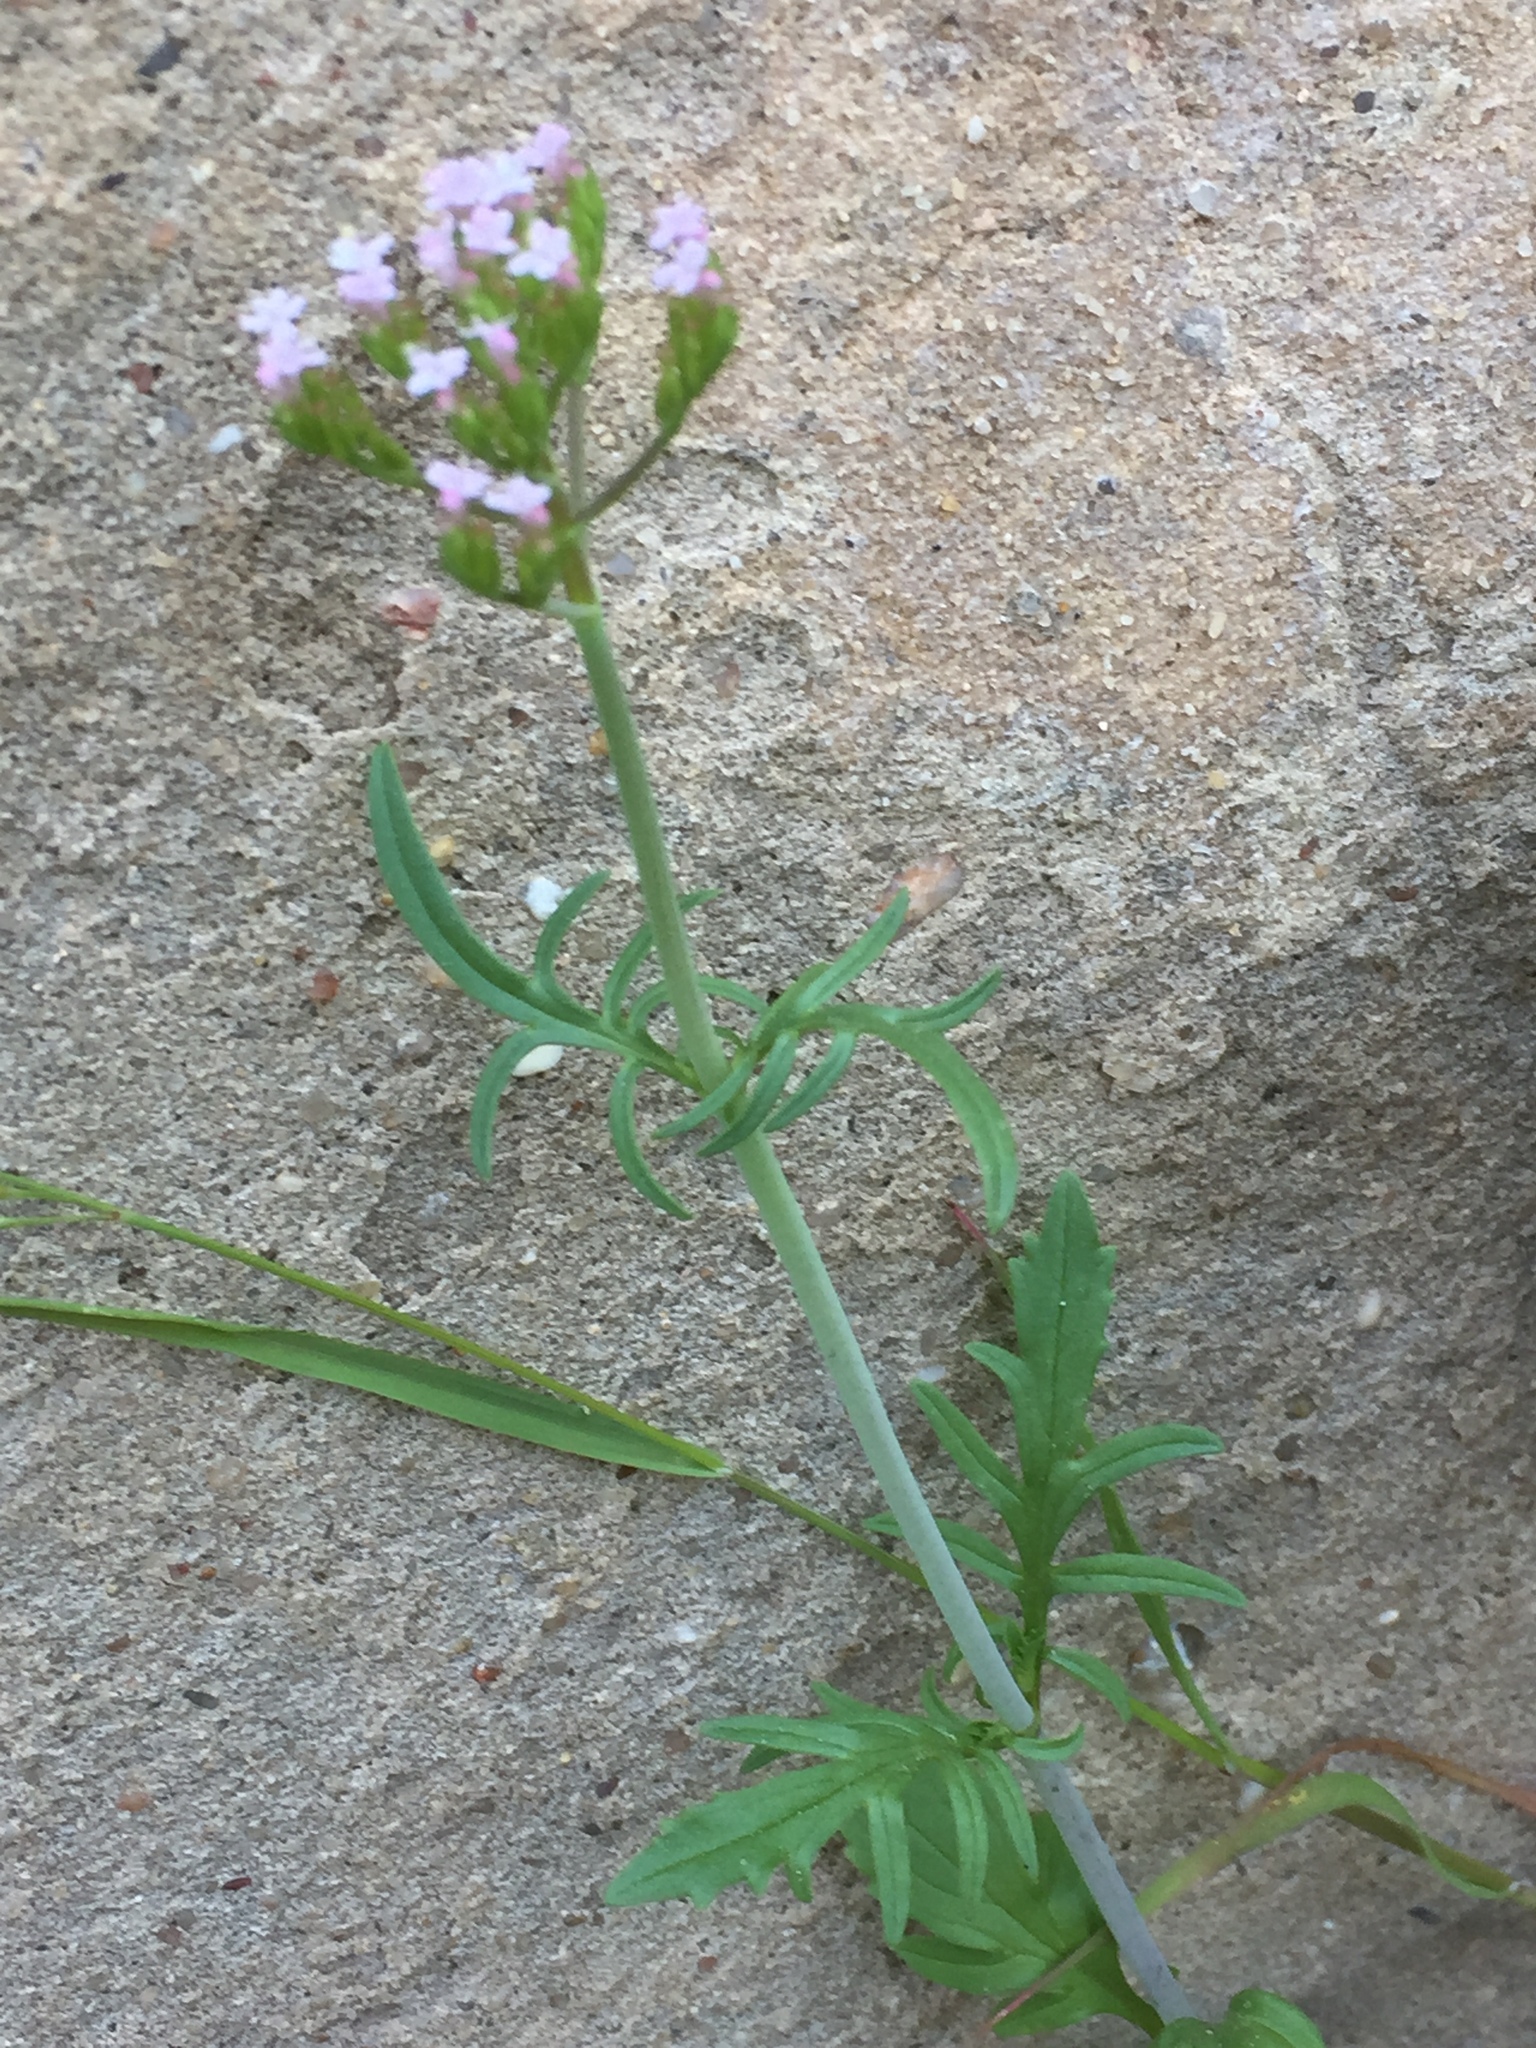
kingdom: Plantae
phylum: Tracheophyta
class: Magnoliopsida
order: Dipsacales
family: Caprifoliaceae
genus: Centranthus
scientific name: Centranthus calcitrapae
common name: Annual valerian
